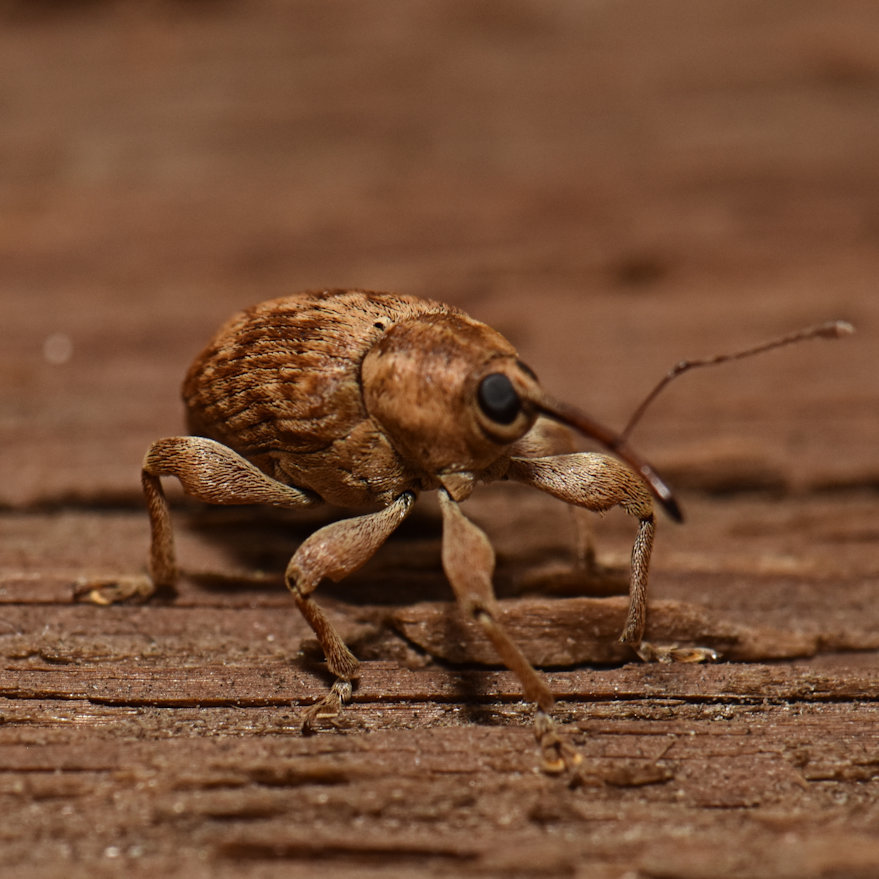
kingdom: Animalia
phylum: Arthropoda
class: Insecta
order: Coleoptera
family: Curculionidae
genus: Curculio
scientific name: Curculio proboscideus
